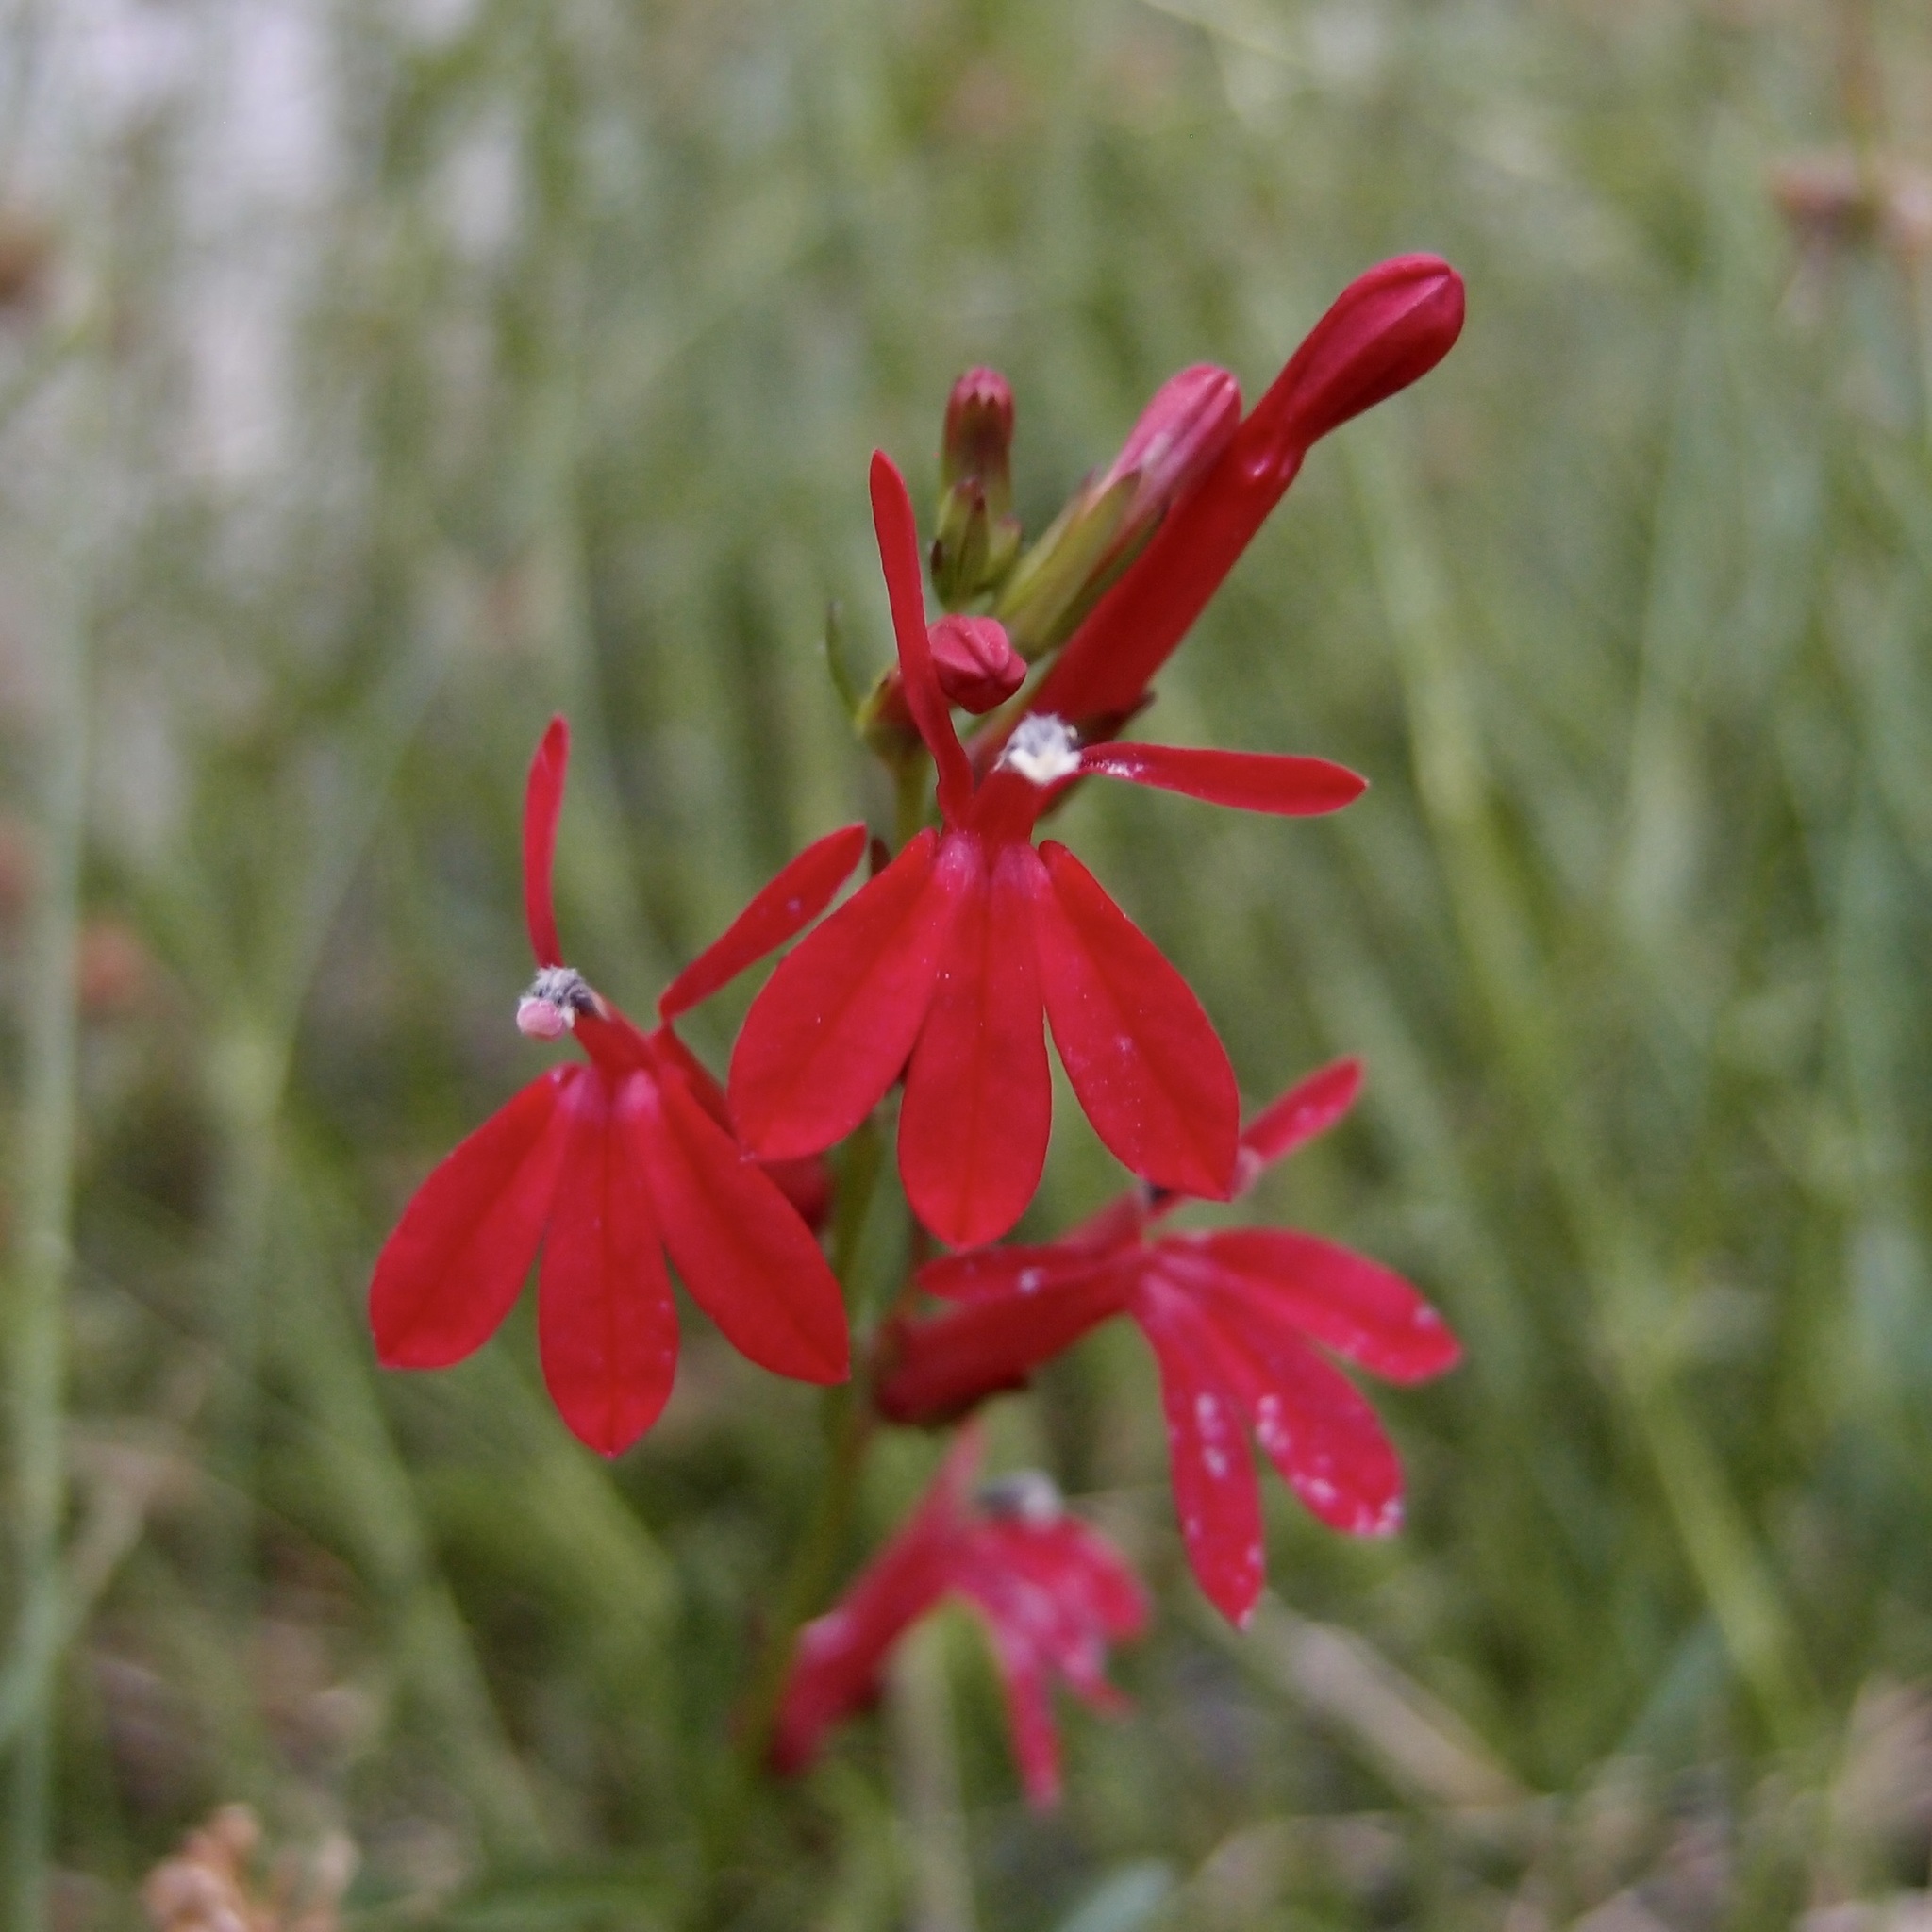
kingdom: Plantae
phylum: Tracheophyta
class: Magnoliopsida
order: Asterales
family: Campanulaceae
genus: Lobelia
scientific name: Lobelia cardinalis
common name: Cardinal flower
